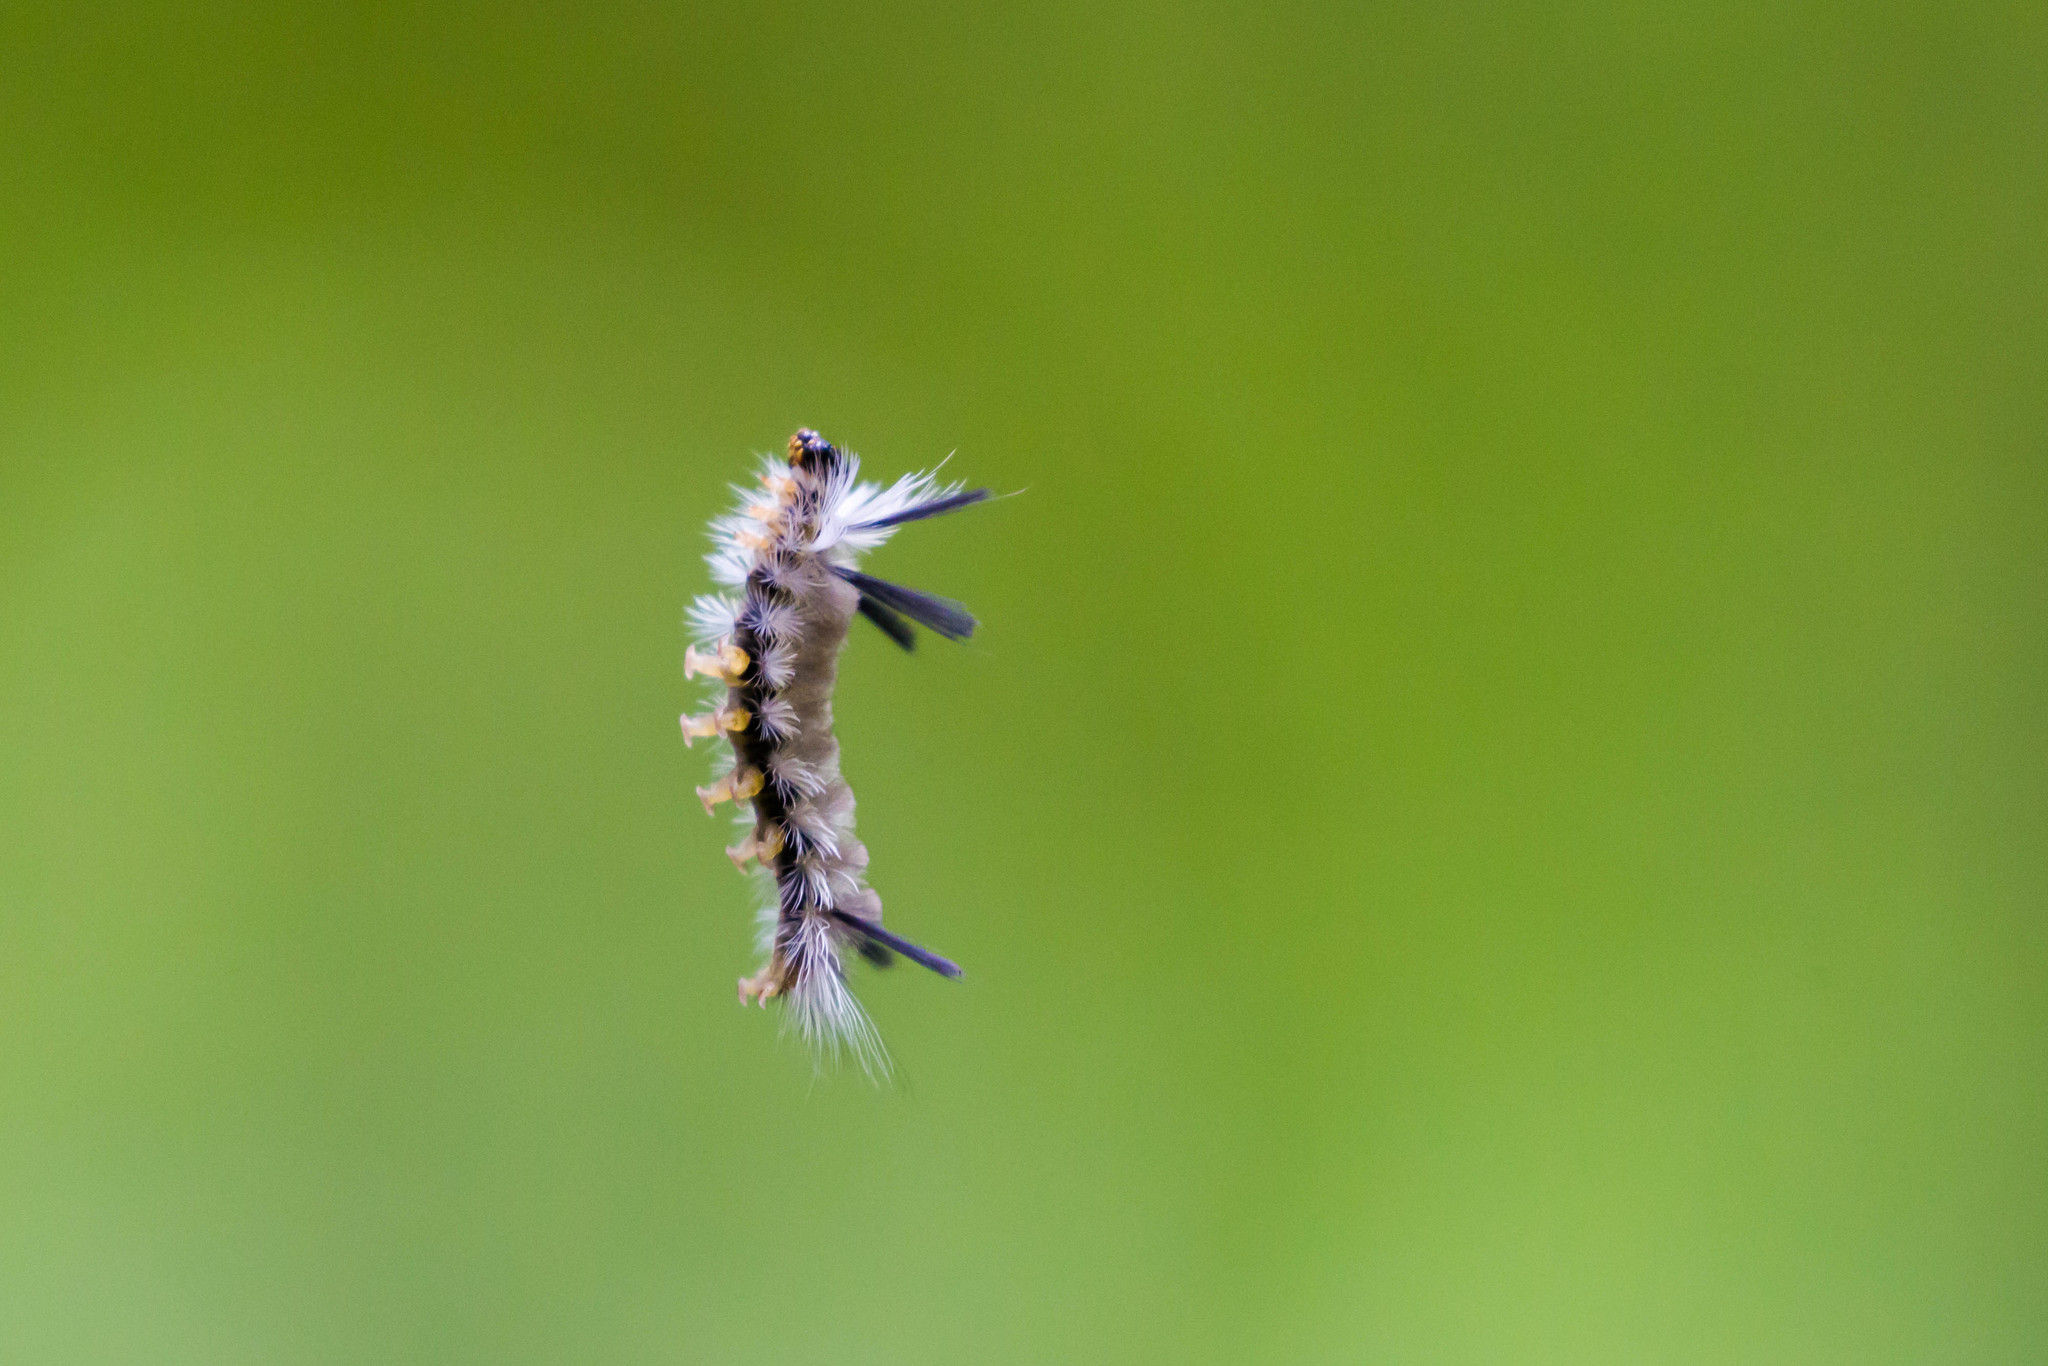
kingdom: Animalia
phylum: Arthropoda
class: Insecta
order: Lepidoptera
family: Erebidae
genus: Halysidota
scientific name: Halysidota tessellaris
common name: Banded tussock moth
